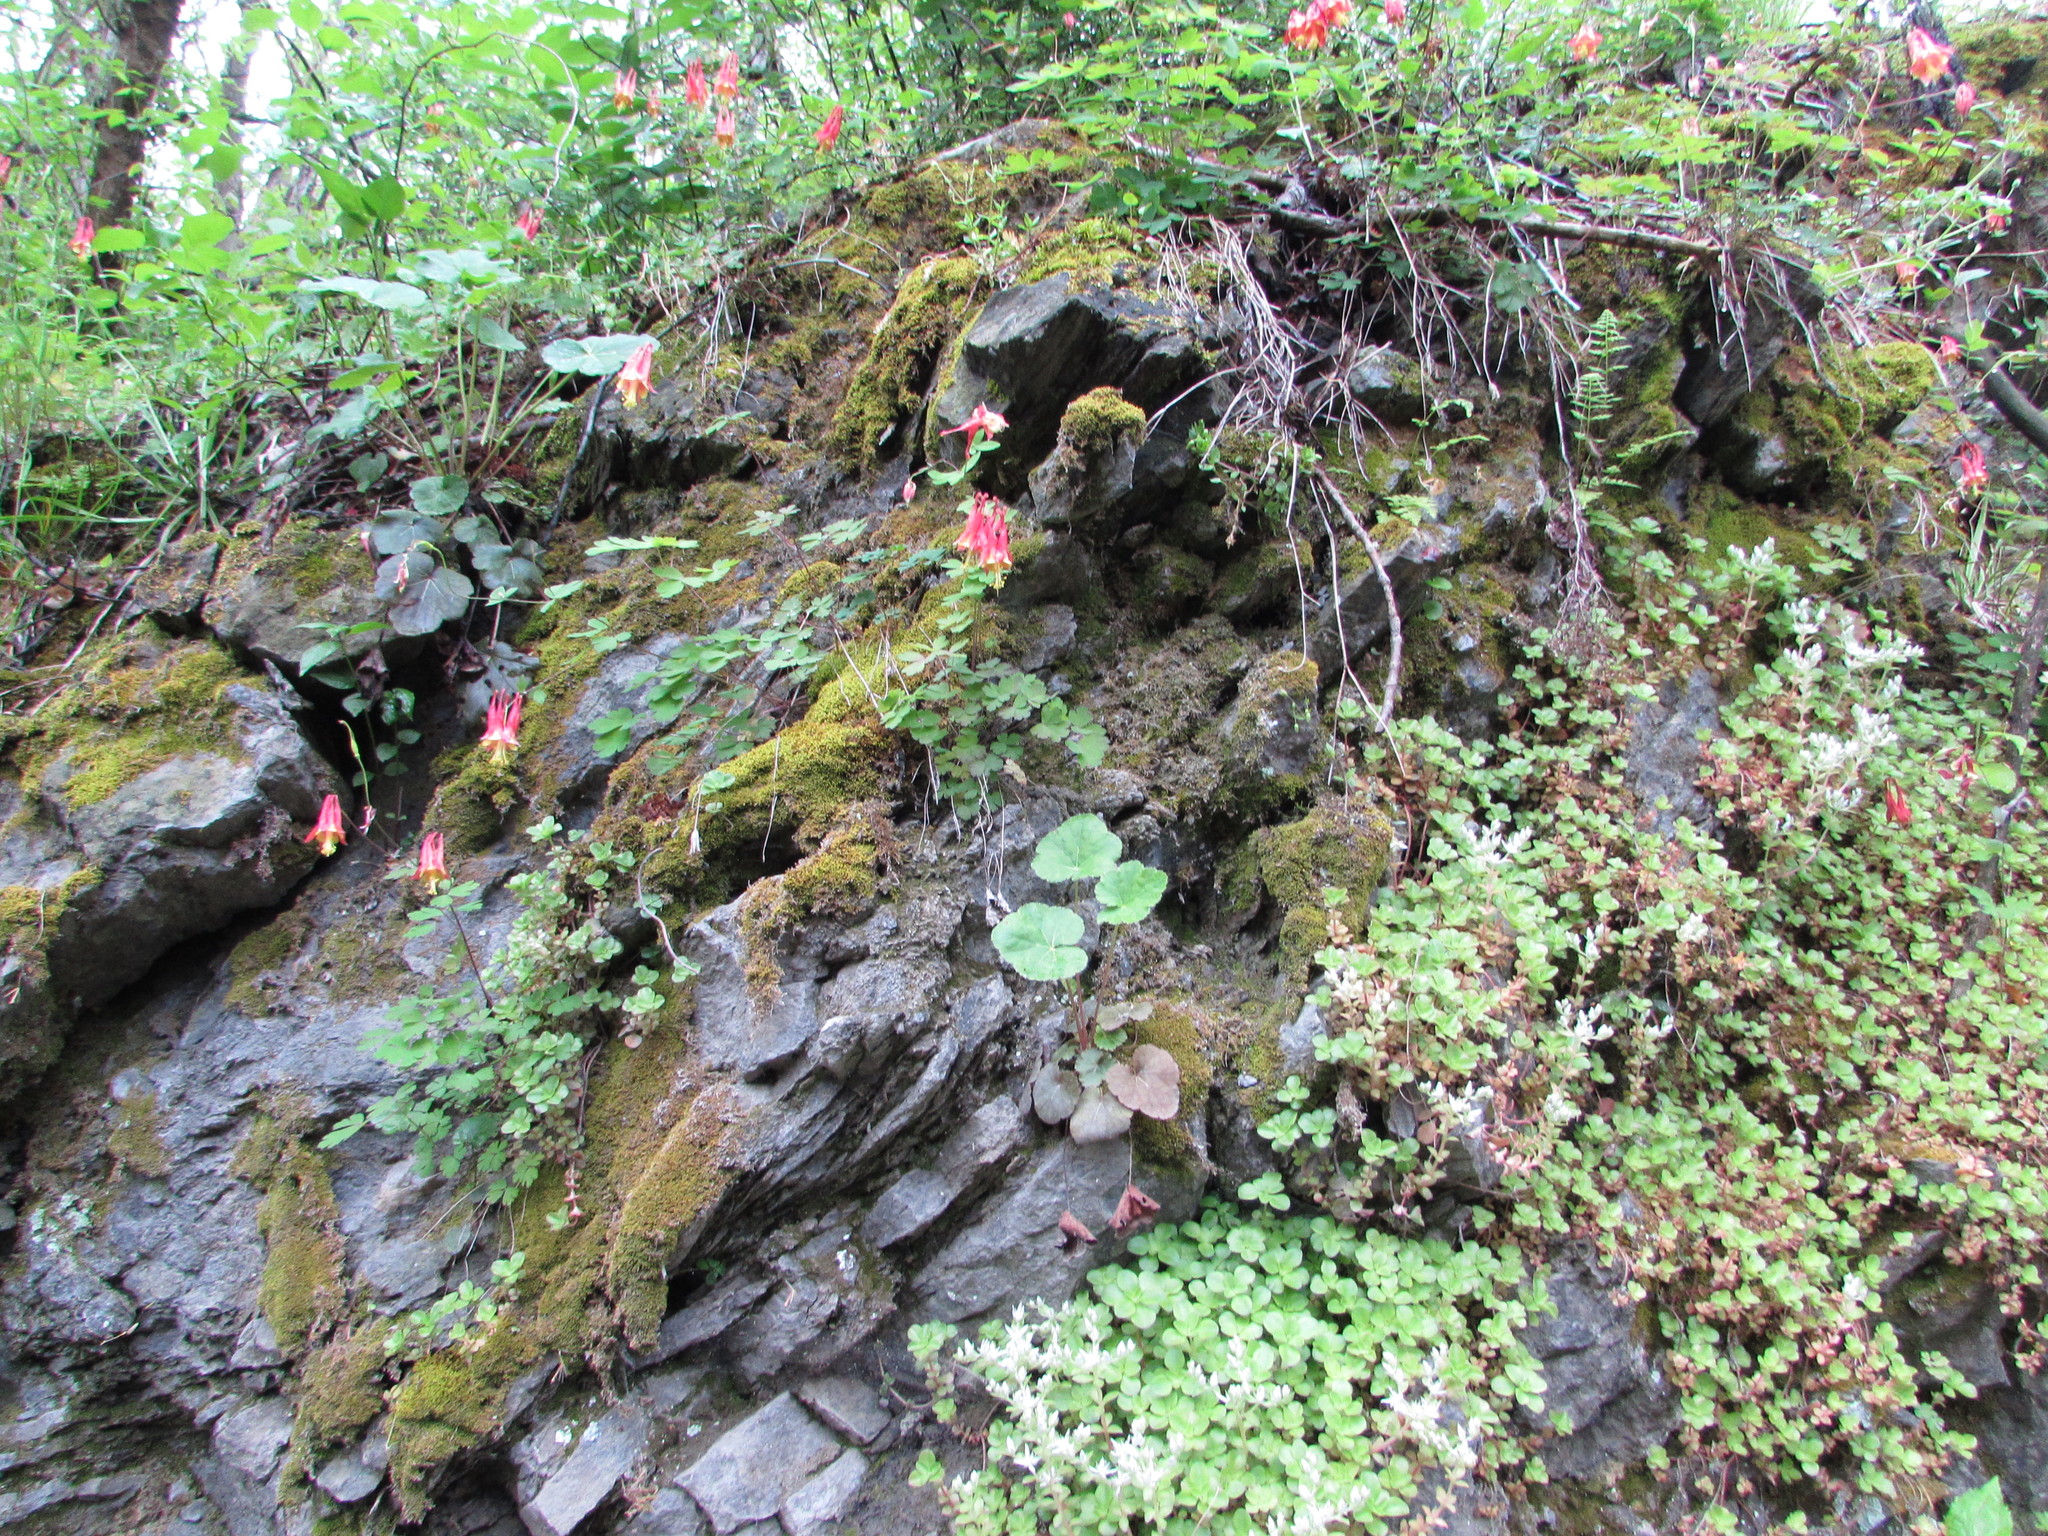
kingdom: Plantae
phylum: Tracheophyta
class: Magnoliopsida
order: Ranunculales
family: Ranunculaceae
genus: Aquilegia
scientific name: Aquilegia canadensis
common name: American columbine
